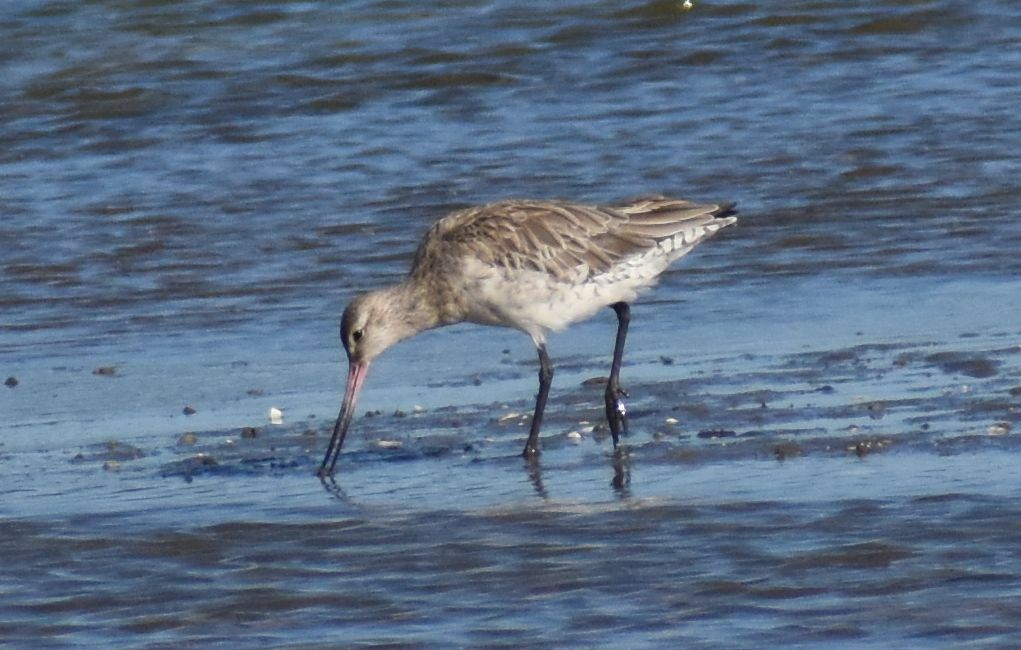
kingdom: Animalia
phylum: Chordata
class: Aves
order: Charadriiformes
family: Scolopacidae
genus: Limosa
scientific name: Limosa lapponica
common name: Bar-tailed godwit
